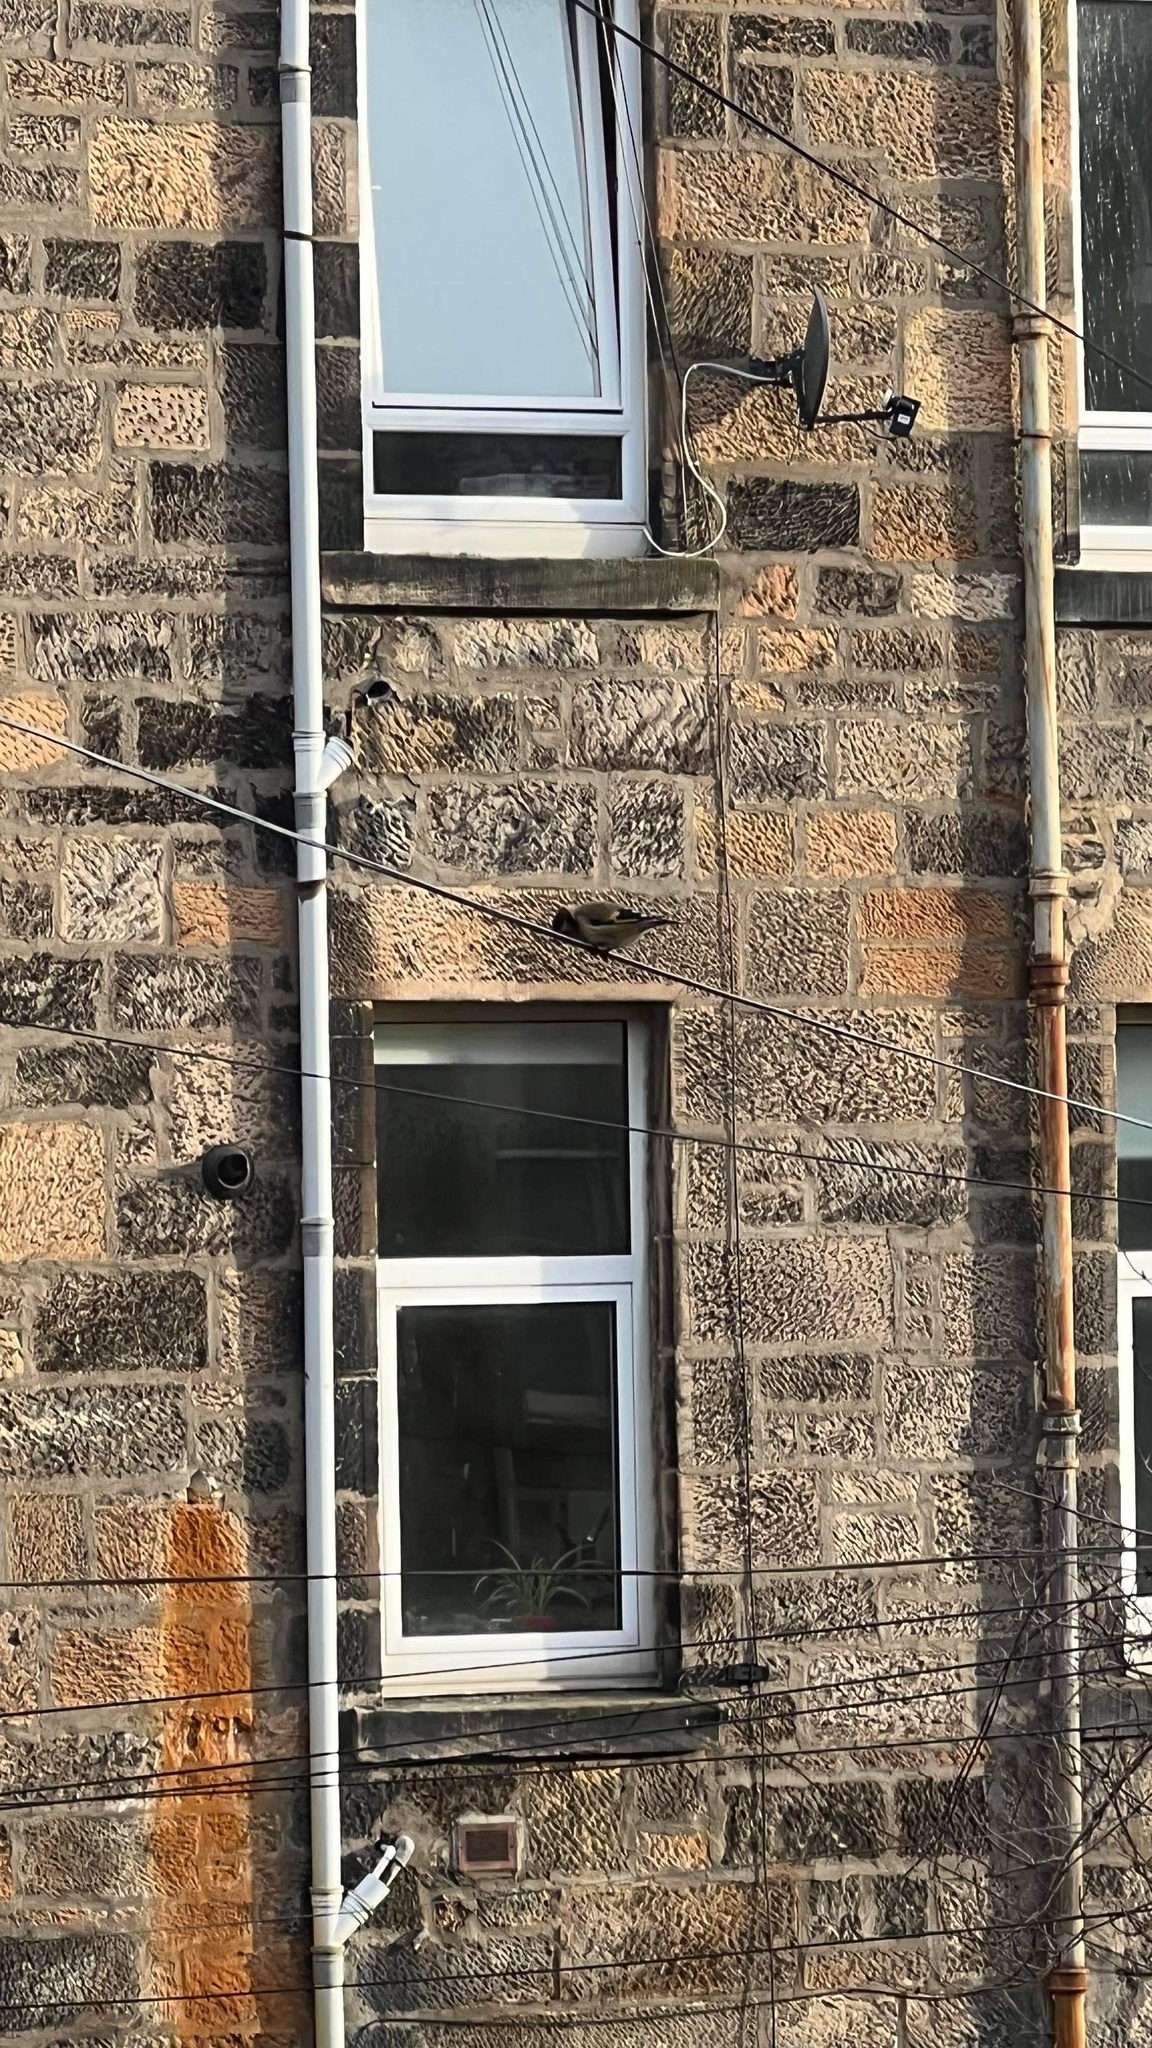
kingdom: Animalia
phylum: Chordata
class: Aves
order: Passeriformes
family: Fringillidae
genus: Carduelis
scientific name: Carduelis carduelis
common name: European goldfinch
